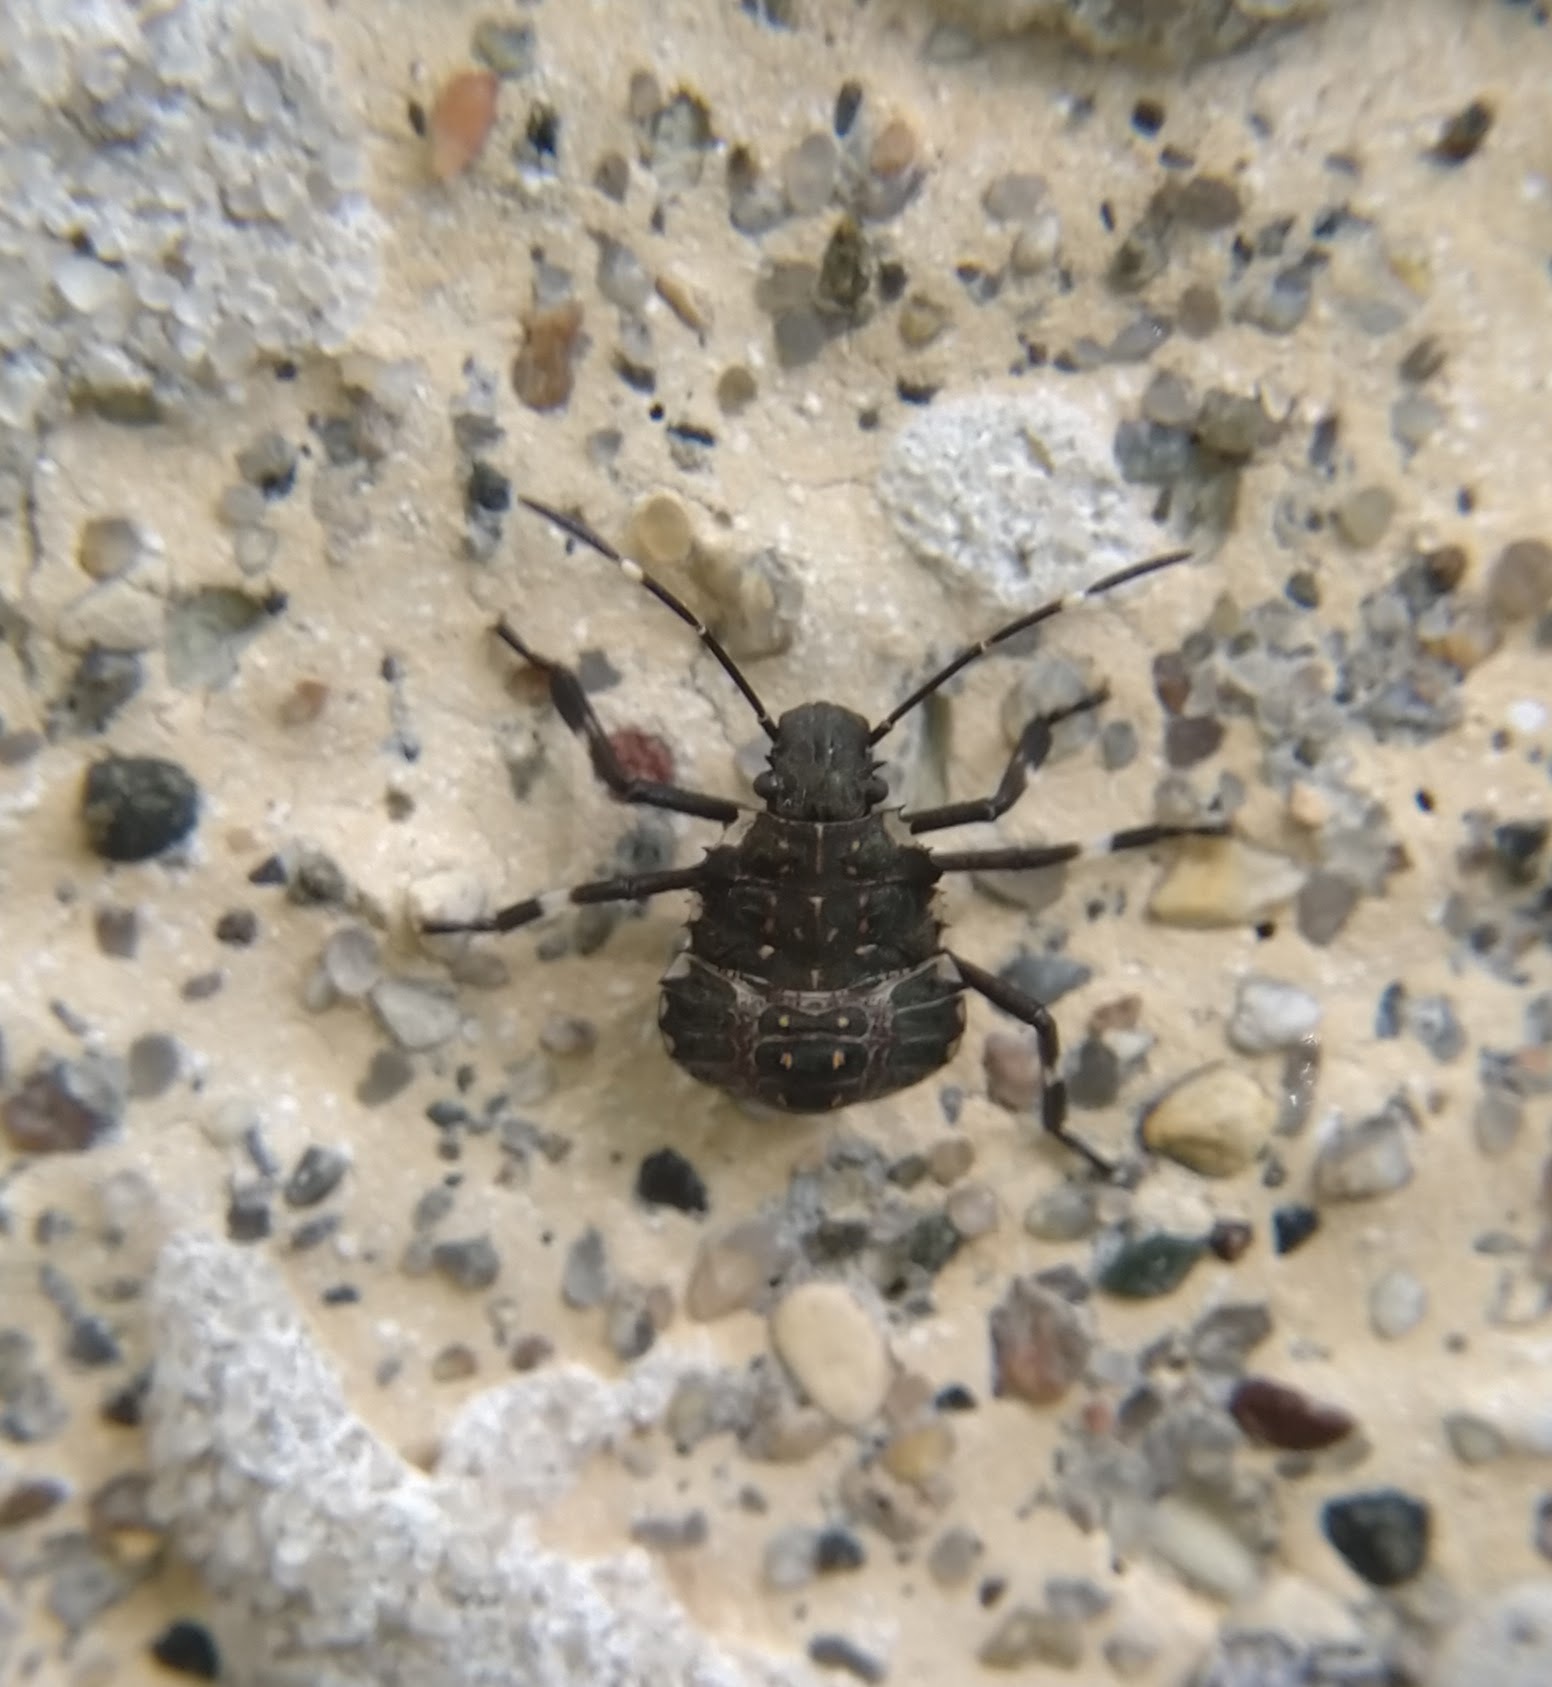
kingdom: Animalia
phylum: Arthropoda
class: Insecta
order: Hemiptera
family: Pentatomidae
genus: Halyomorpha
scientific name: Halyomorpha halys
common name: Brown marmorated stink bug
